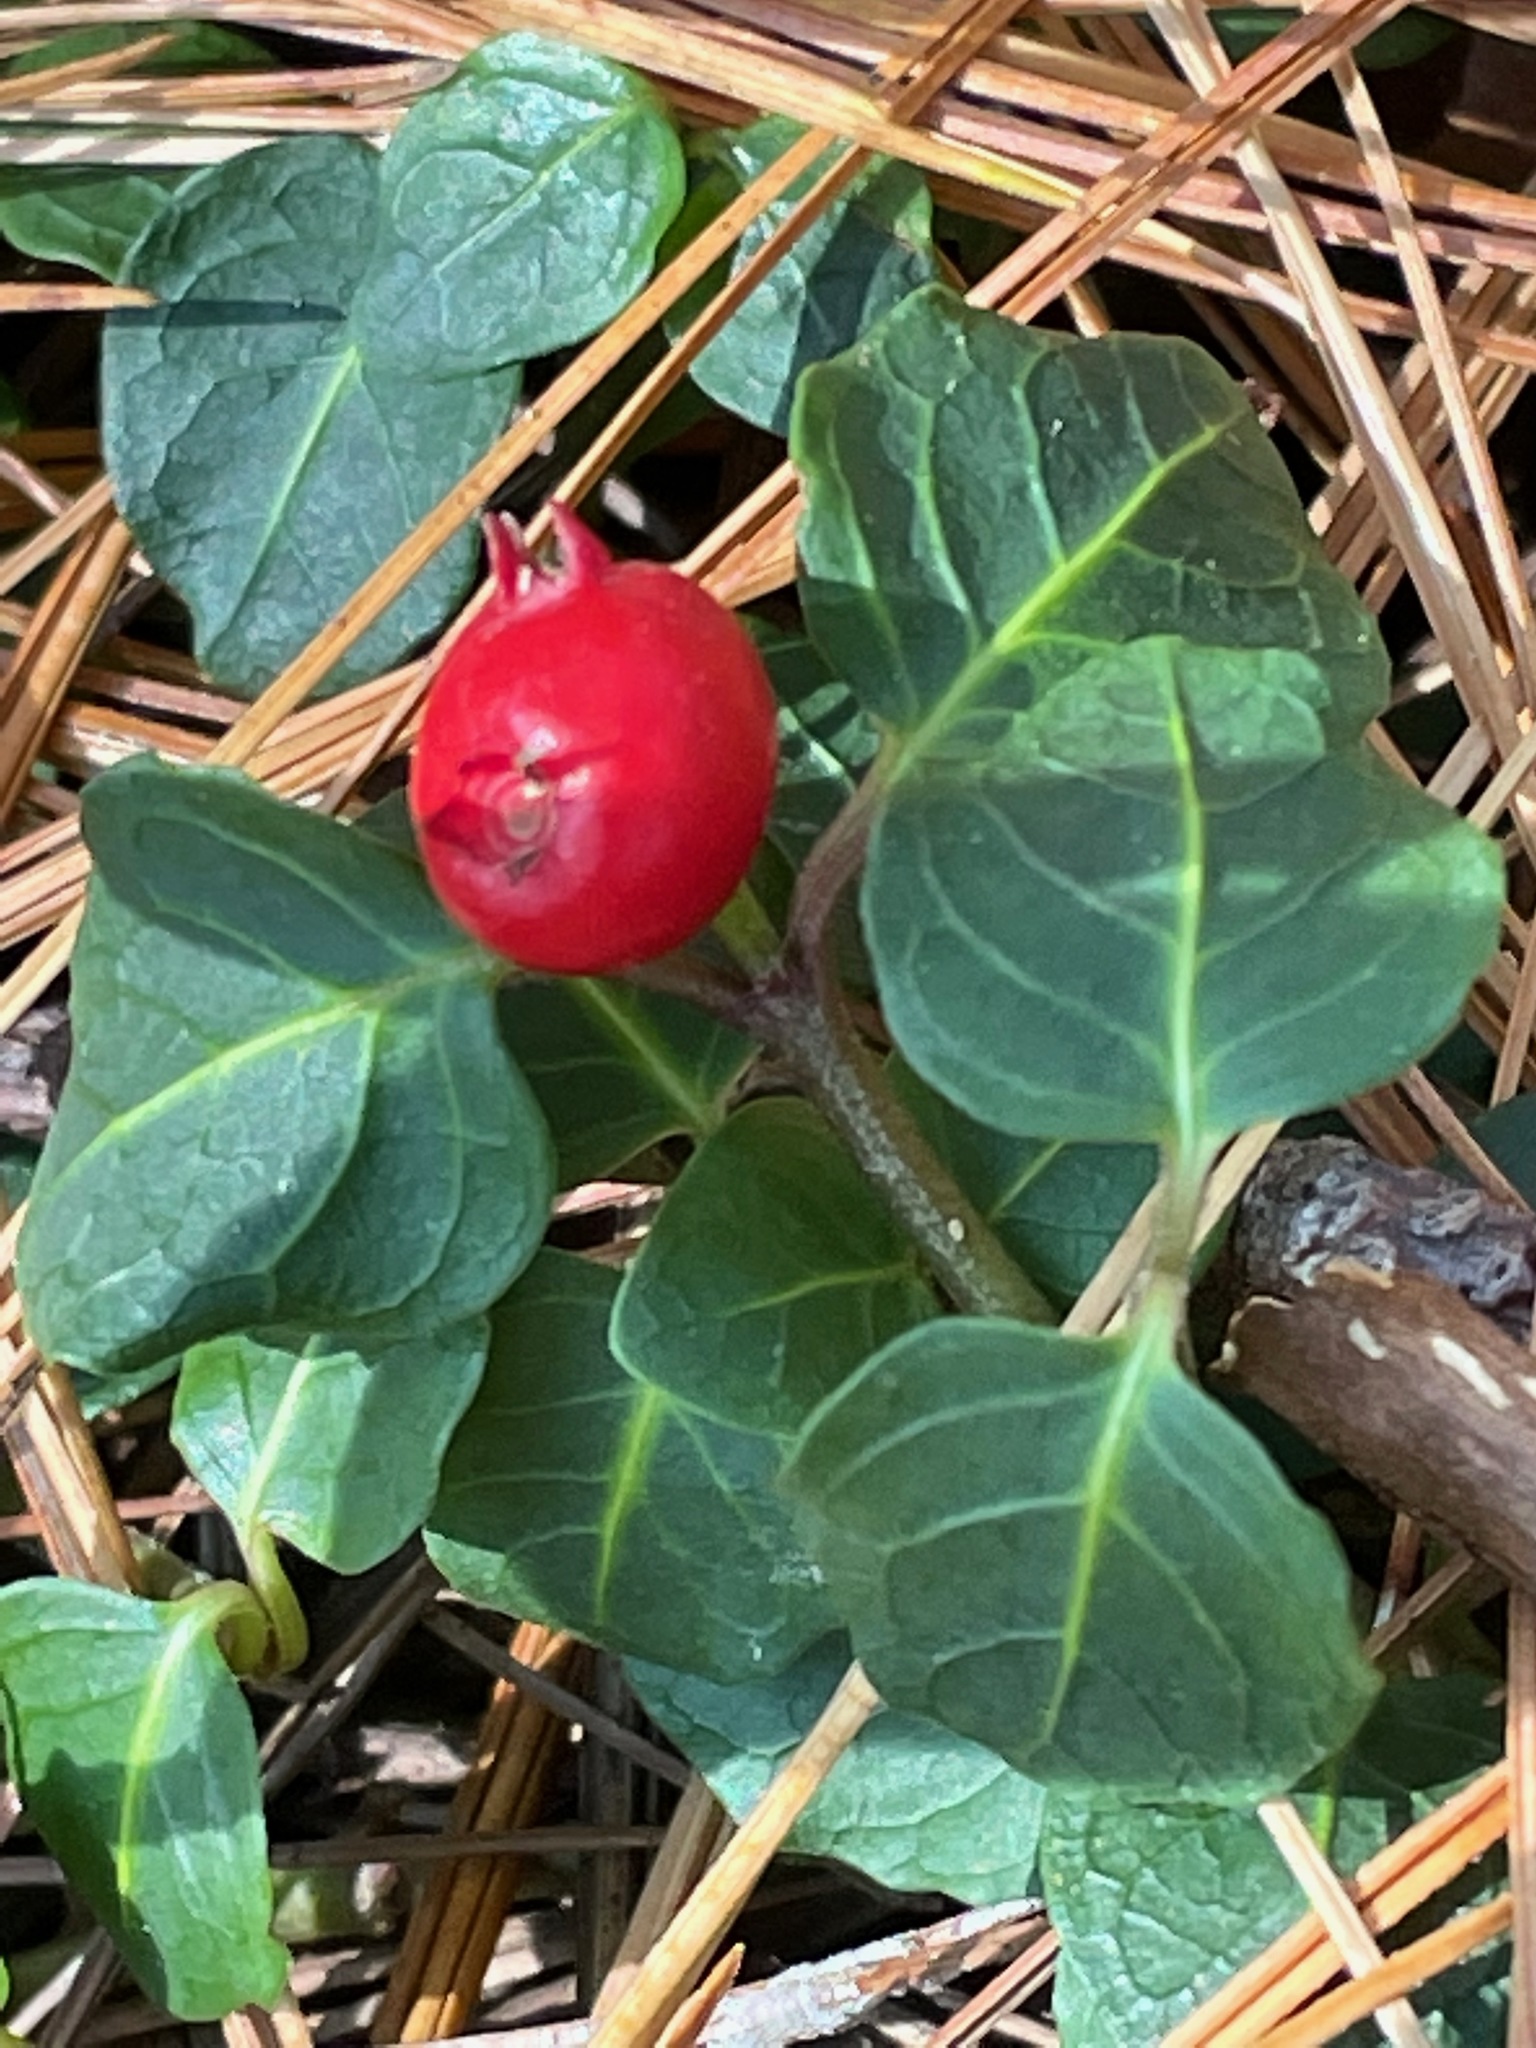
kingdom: Plantae
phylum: Tracheophyta
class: Magnoliopsida
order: Gentianales
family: Rubiaceae
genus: Mitchella
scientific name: Mitchella repens
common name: Partridge-berry
